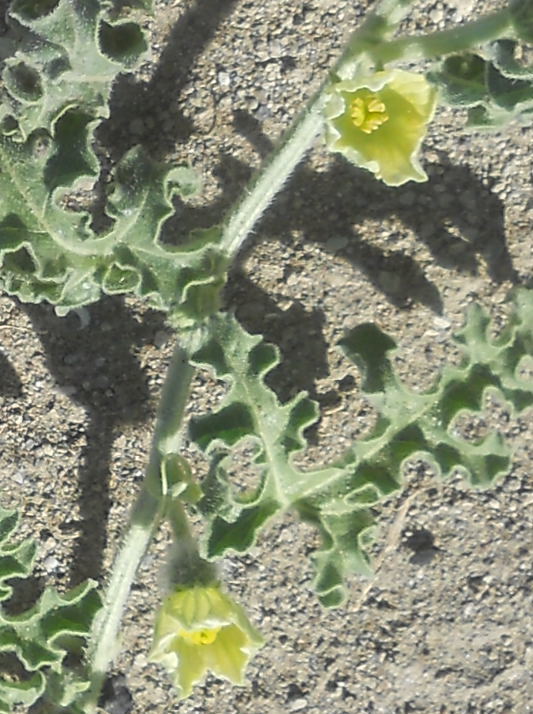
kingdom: Plantae
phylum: Tracheophyta
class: Magnoliopsida
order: Cucurbitales
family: Cucurbitaceae
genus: Citrullus
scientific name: Citrullus colocynthis
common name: Colocynth
